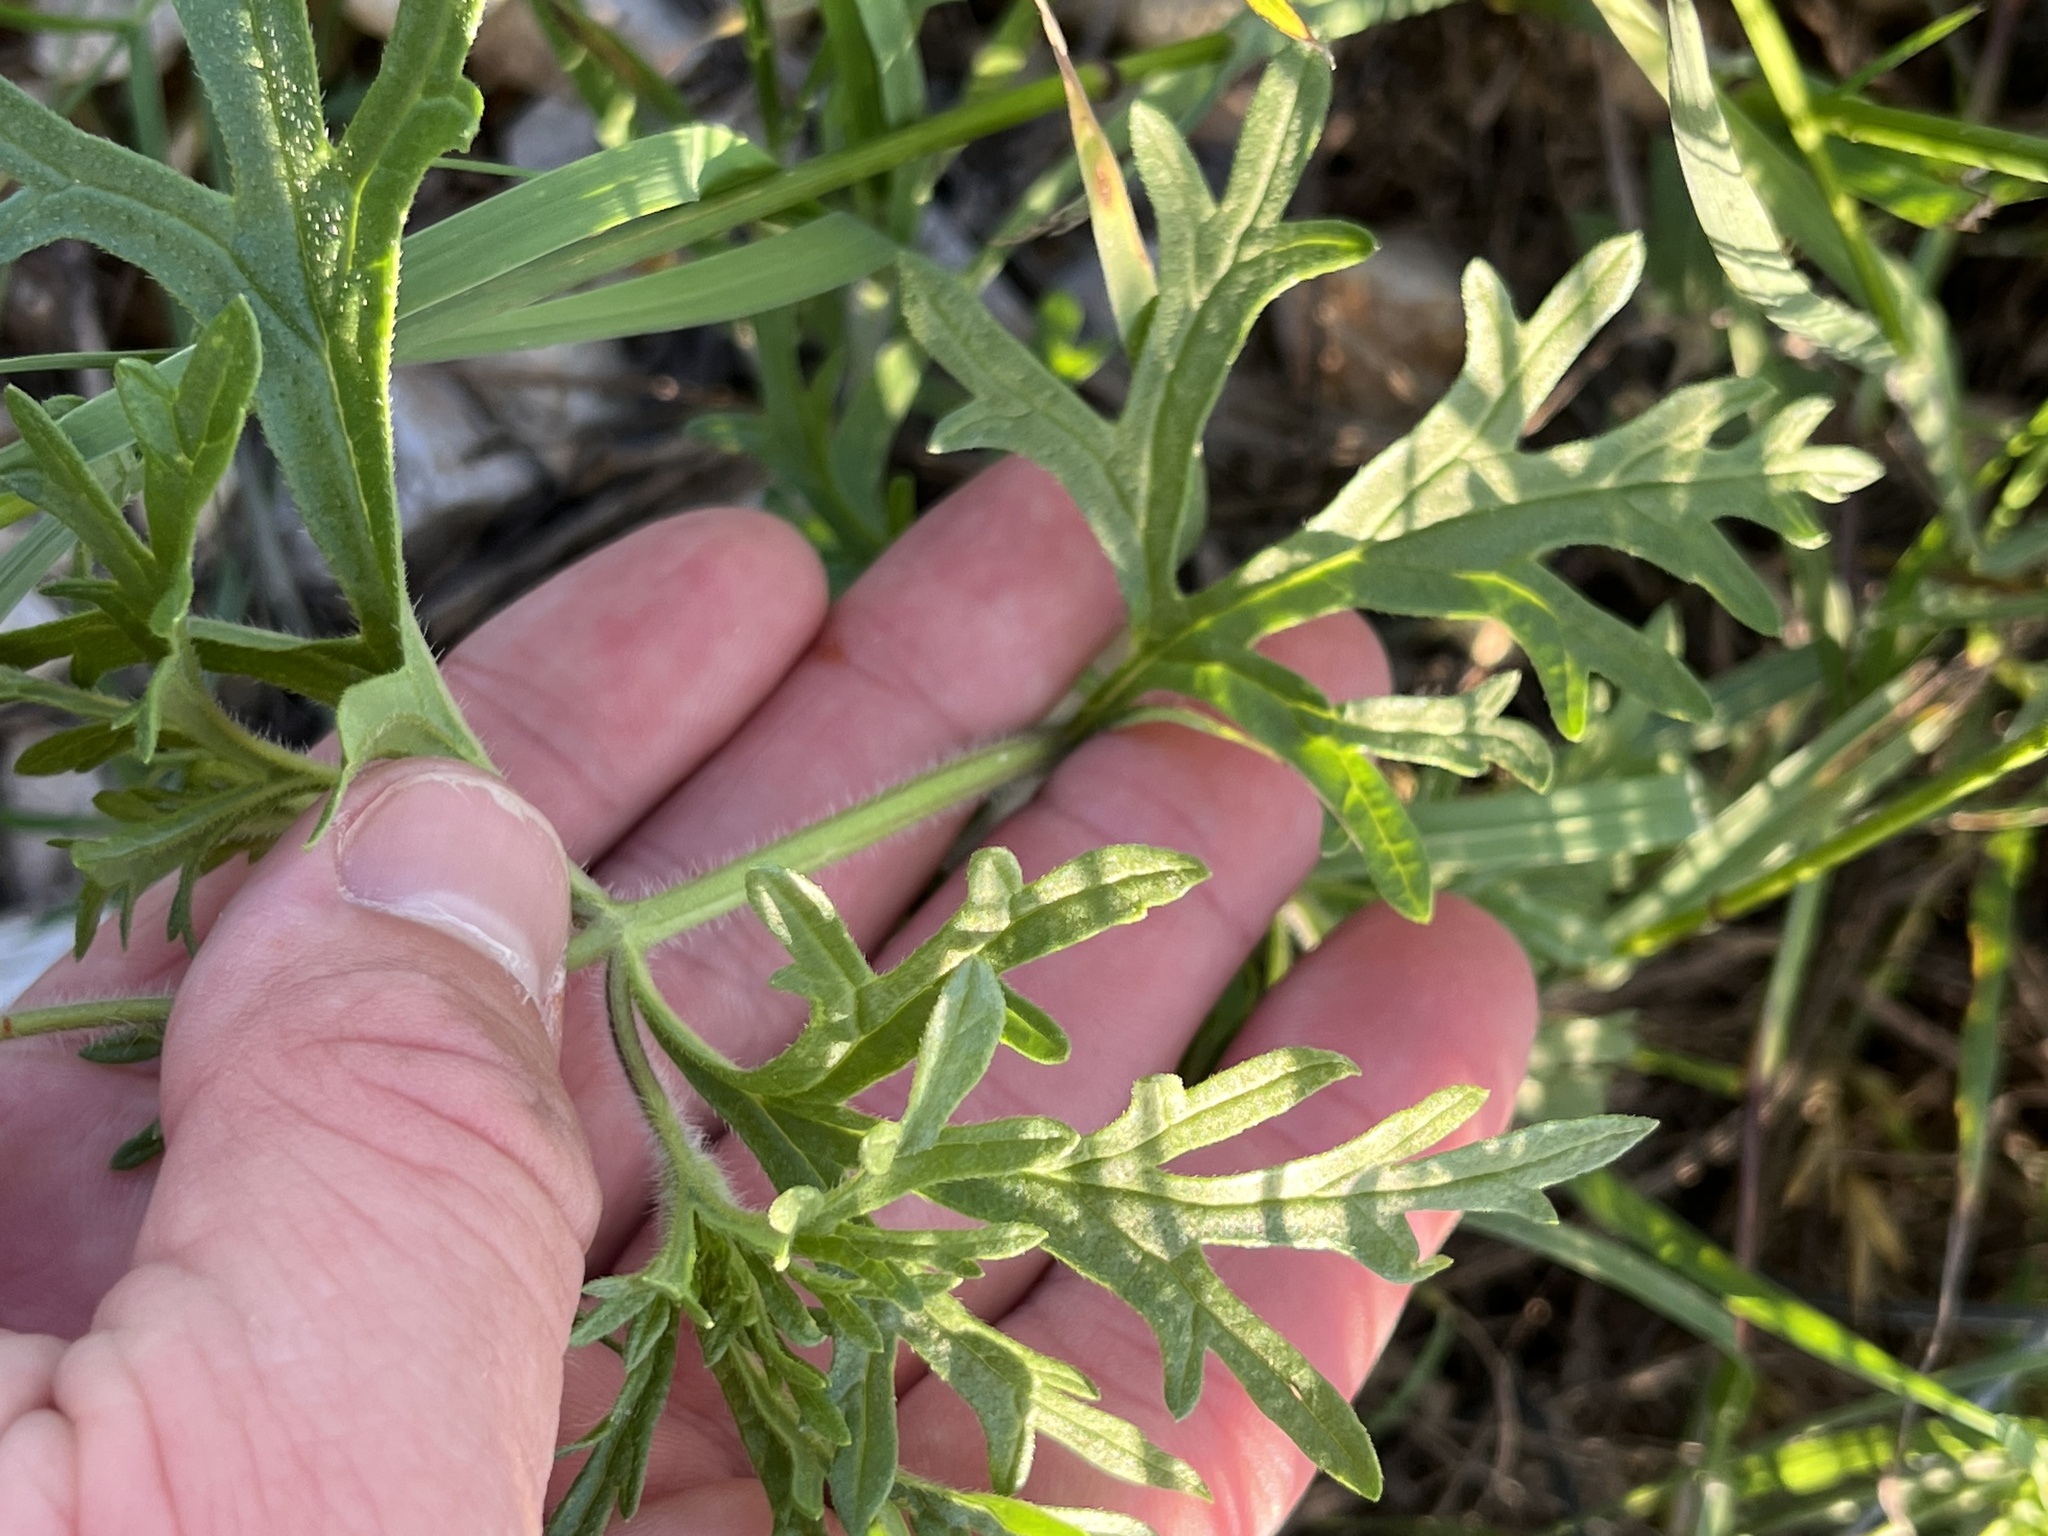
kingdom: Plantae
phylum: Tracheophyta
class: Magnoliopsida
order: Lamiales
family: Verbenaceae
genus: Verbena
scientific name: Verbena bipinnatifida
